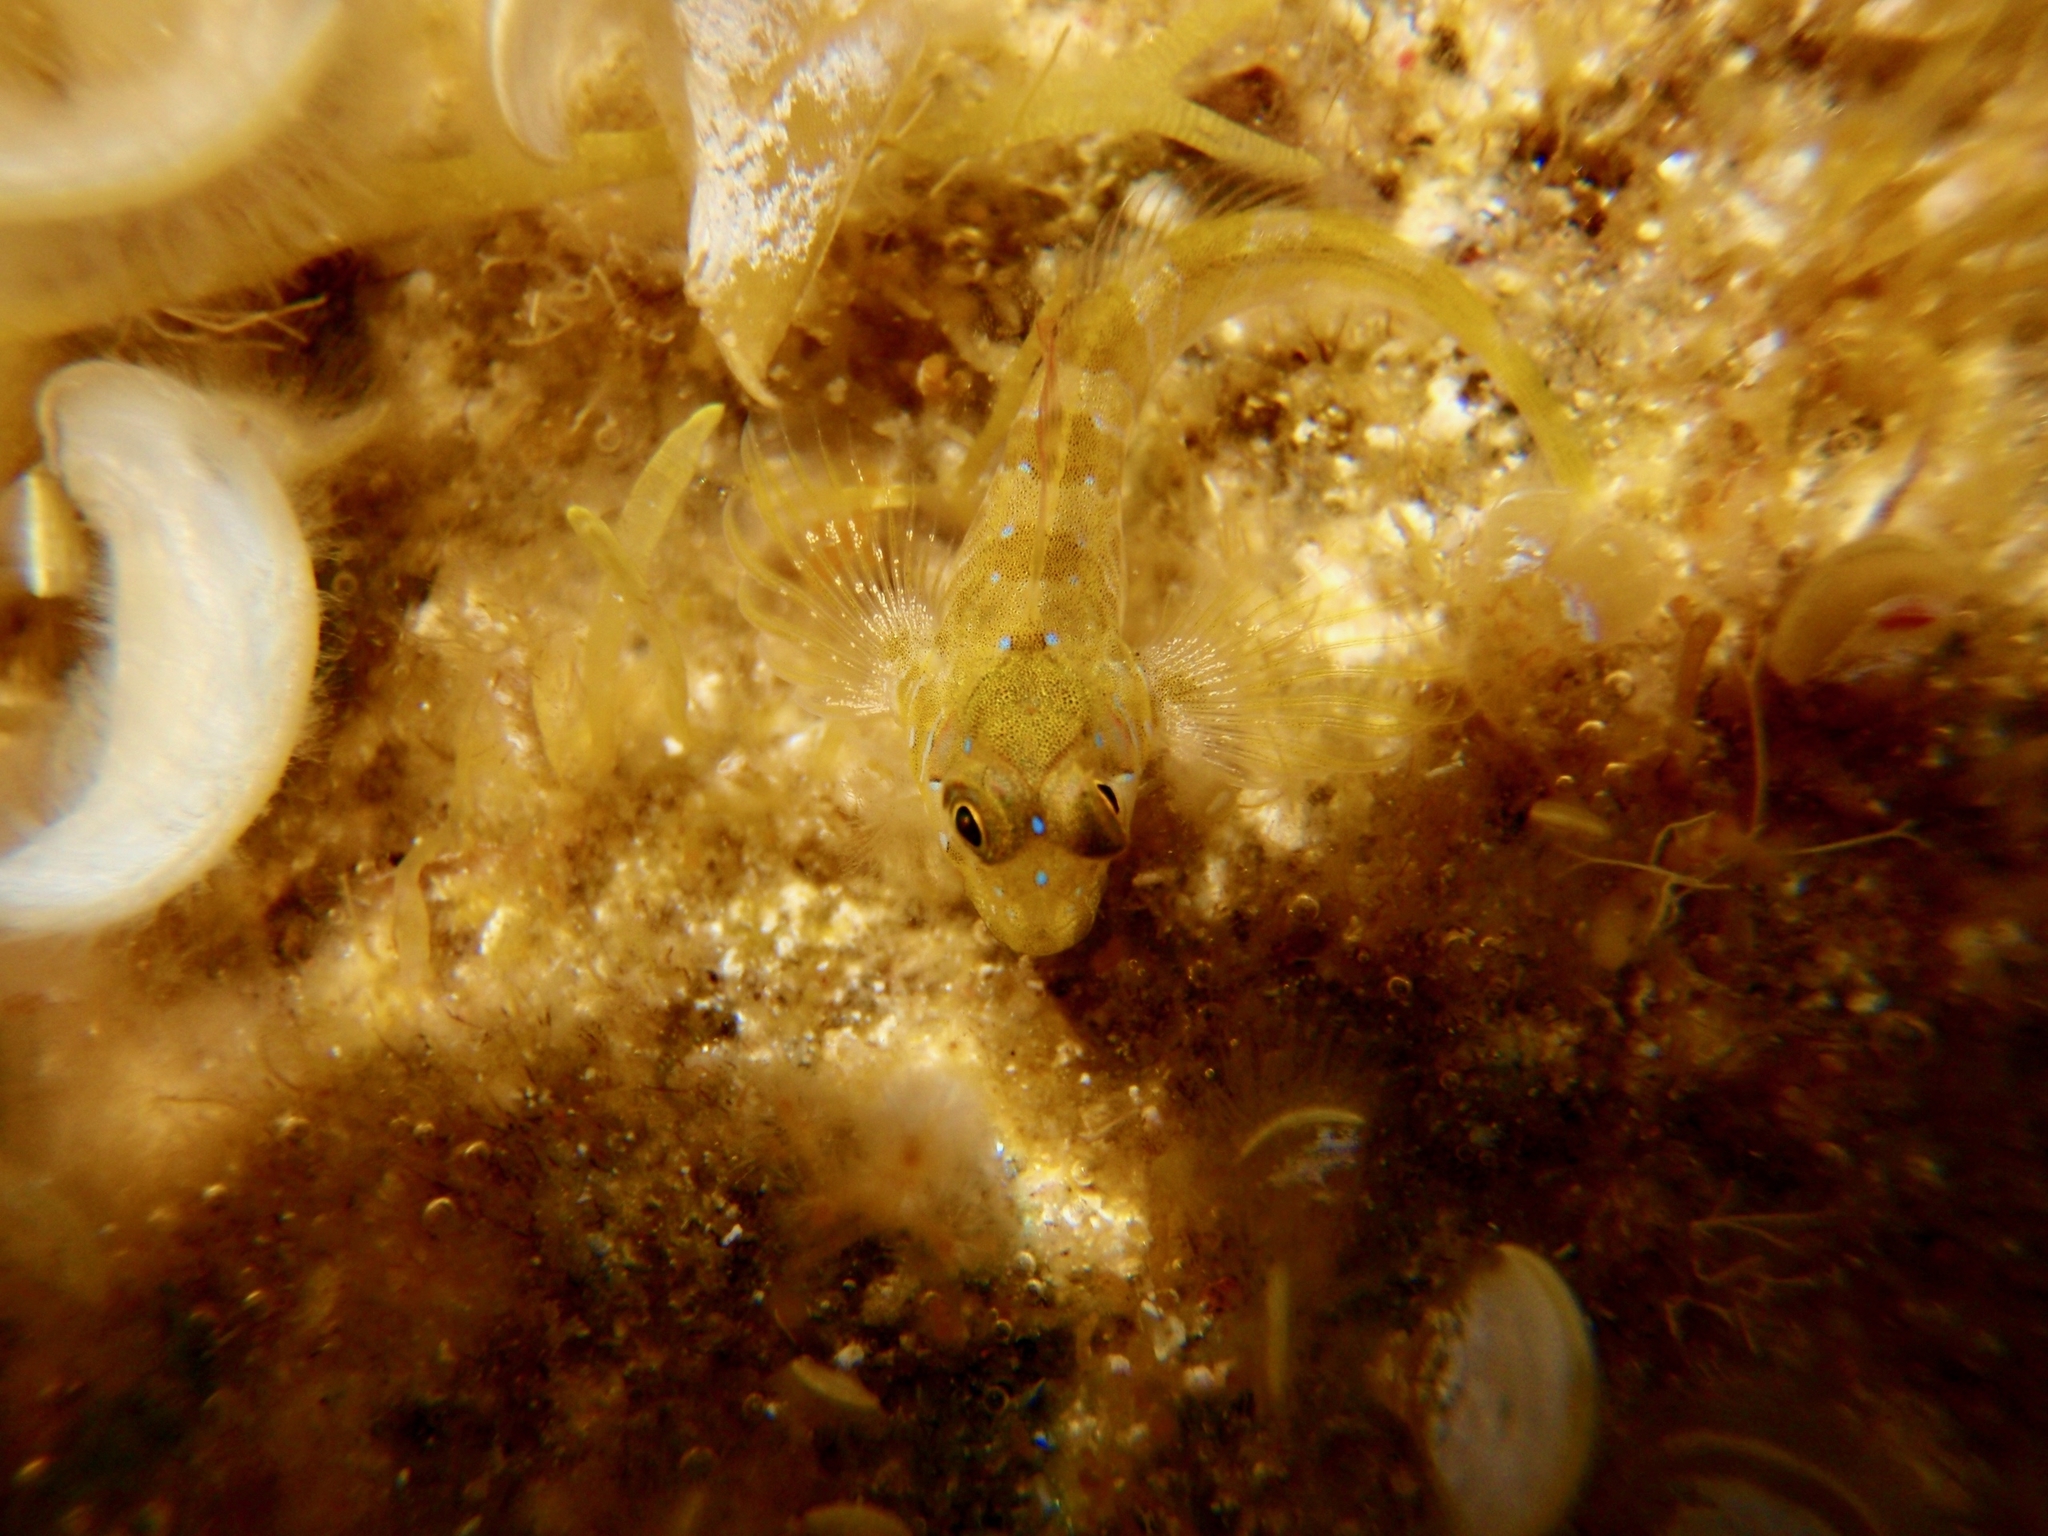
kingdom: Animalia
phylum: Chordata
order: Perciformes
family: Blenniidae
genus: Aidablennius
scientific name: Aidablennius sphynx
